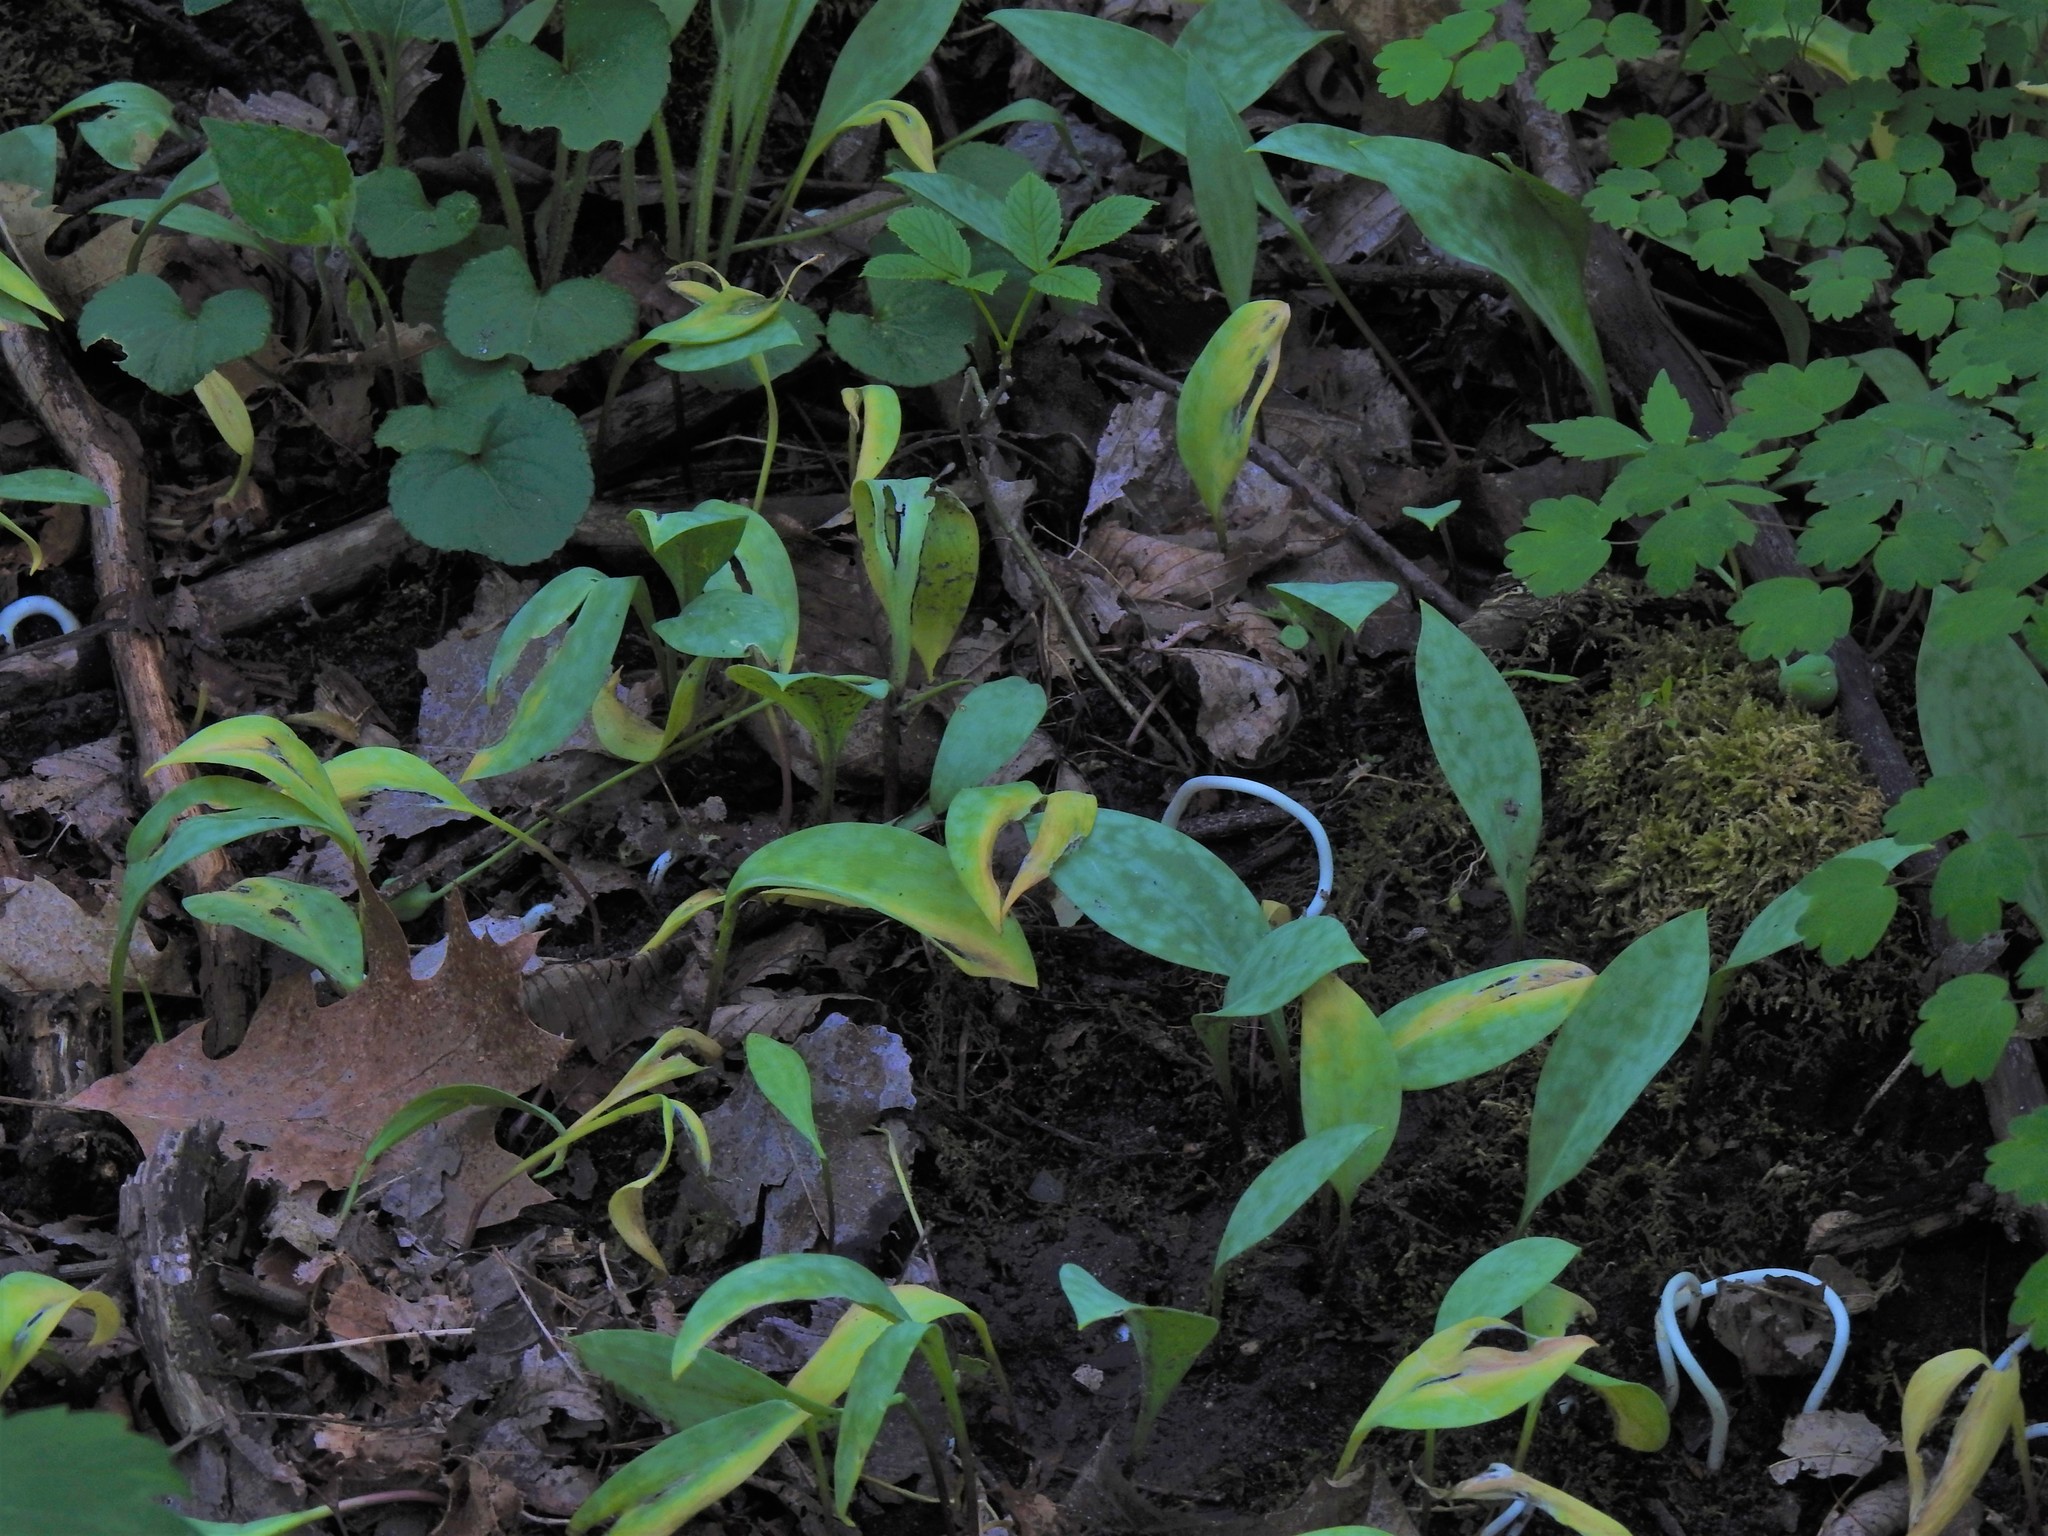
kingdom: Plantae
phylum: Tracheophyta
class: Liliopsida
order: Liliales
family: Liliaceae
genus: Erythronium
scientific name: Erythronium
